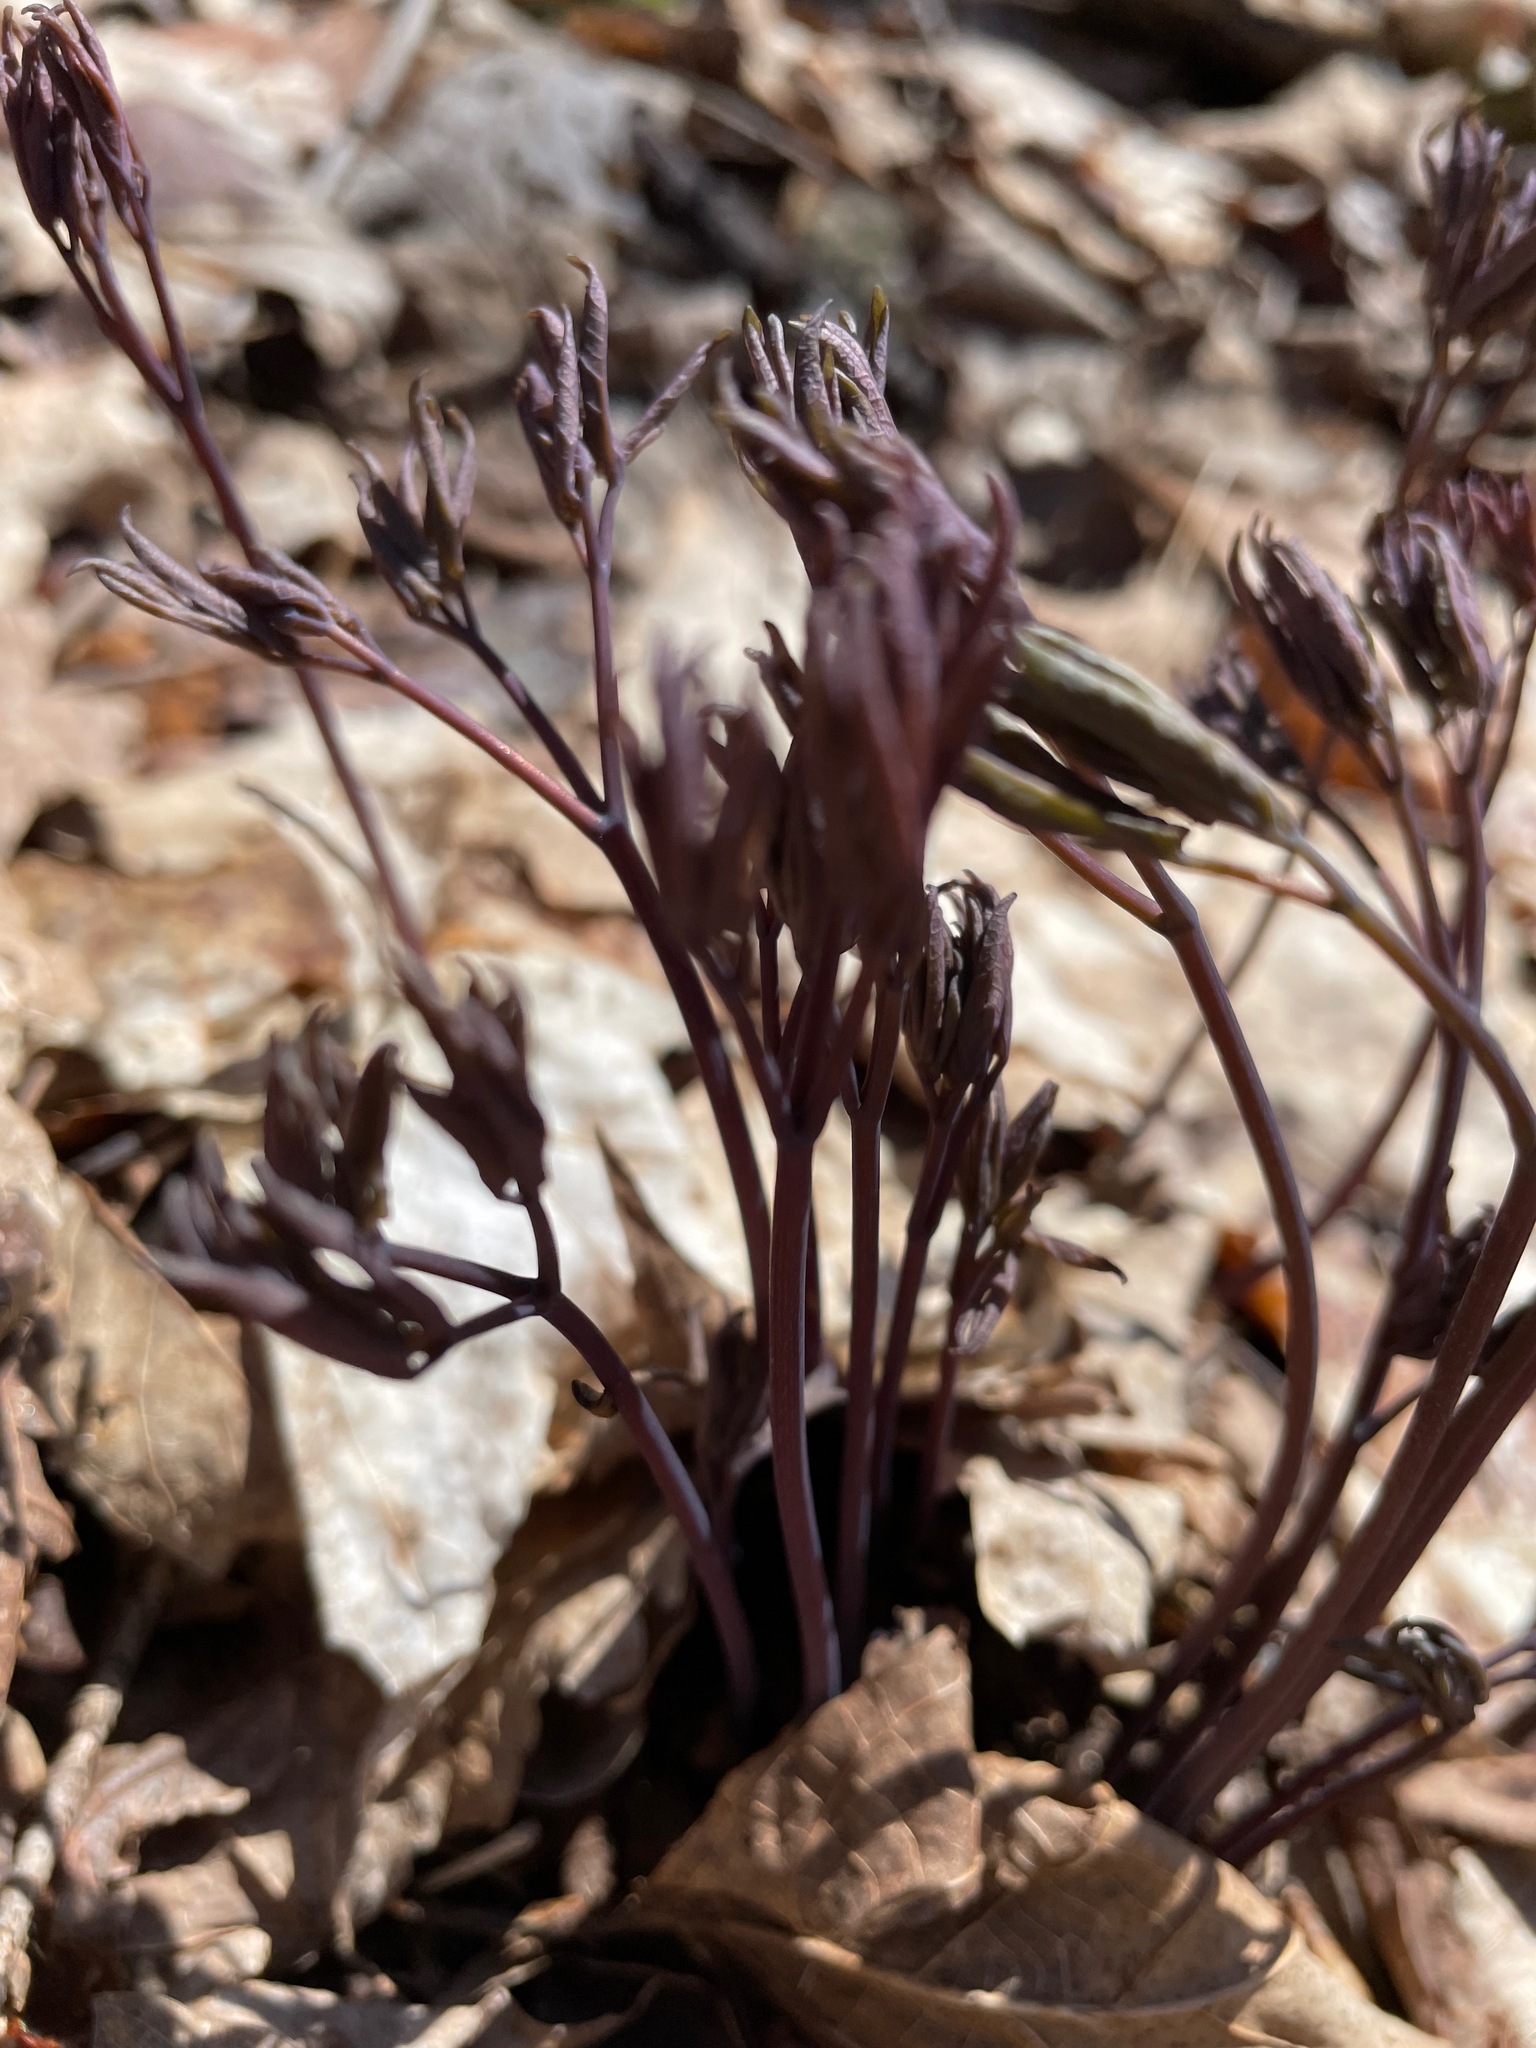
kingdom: Plantae
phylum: Tracheophyta
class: Magnoliopsida
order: Ranunculales
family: Berberidaceae
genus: Caulophyllum
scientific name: Caulophyllum giganteum
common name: Blue cohosh
